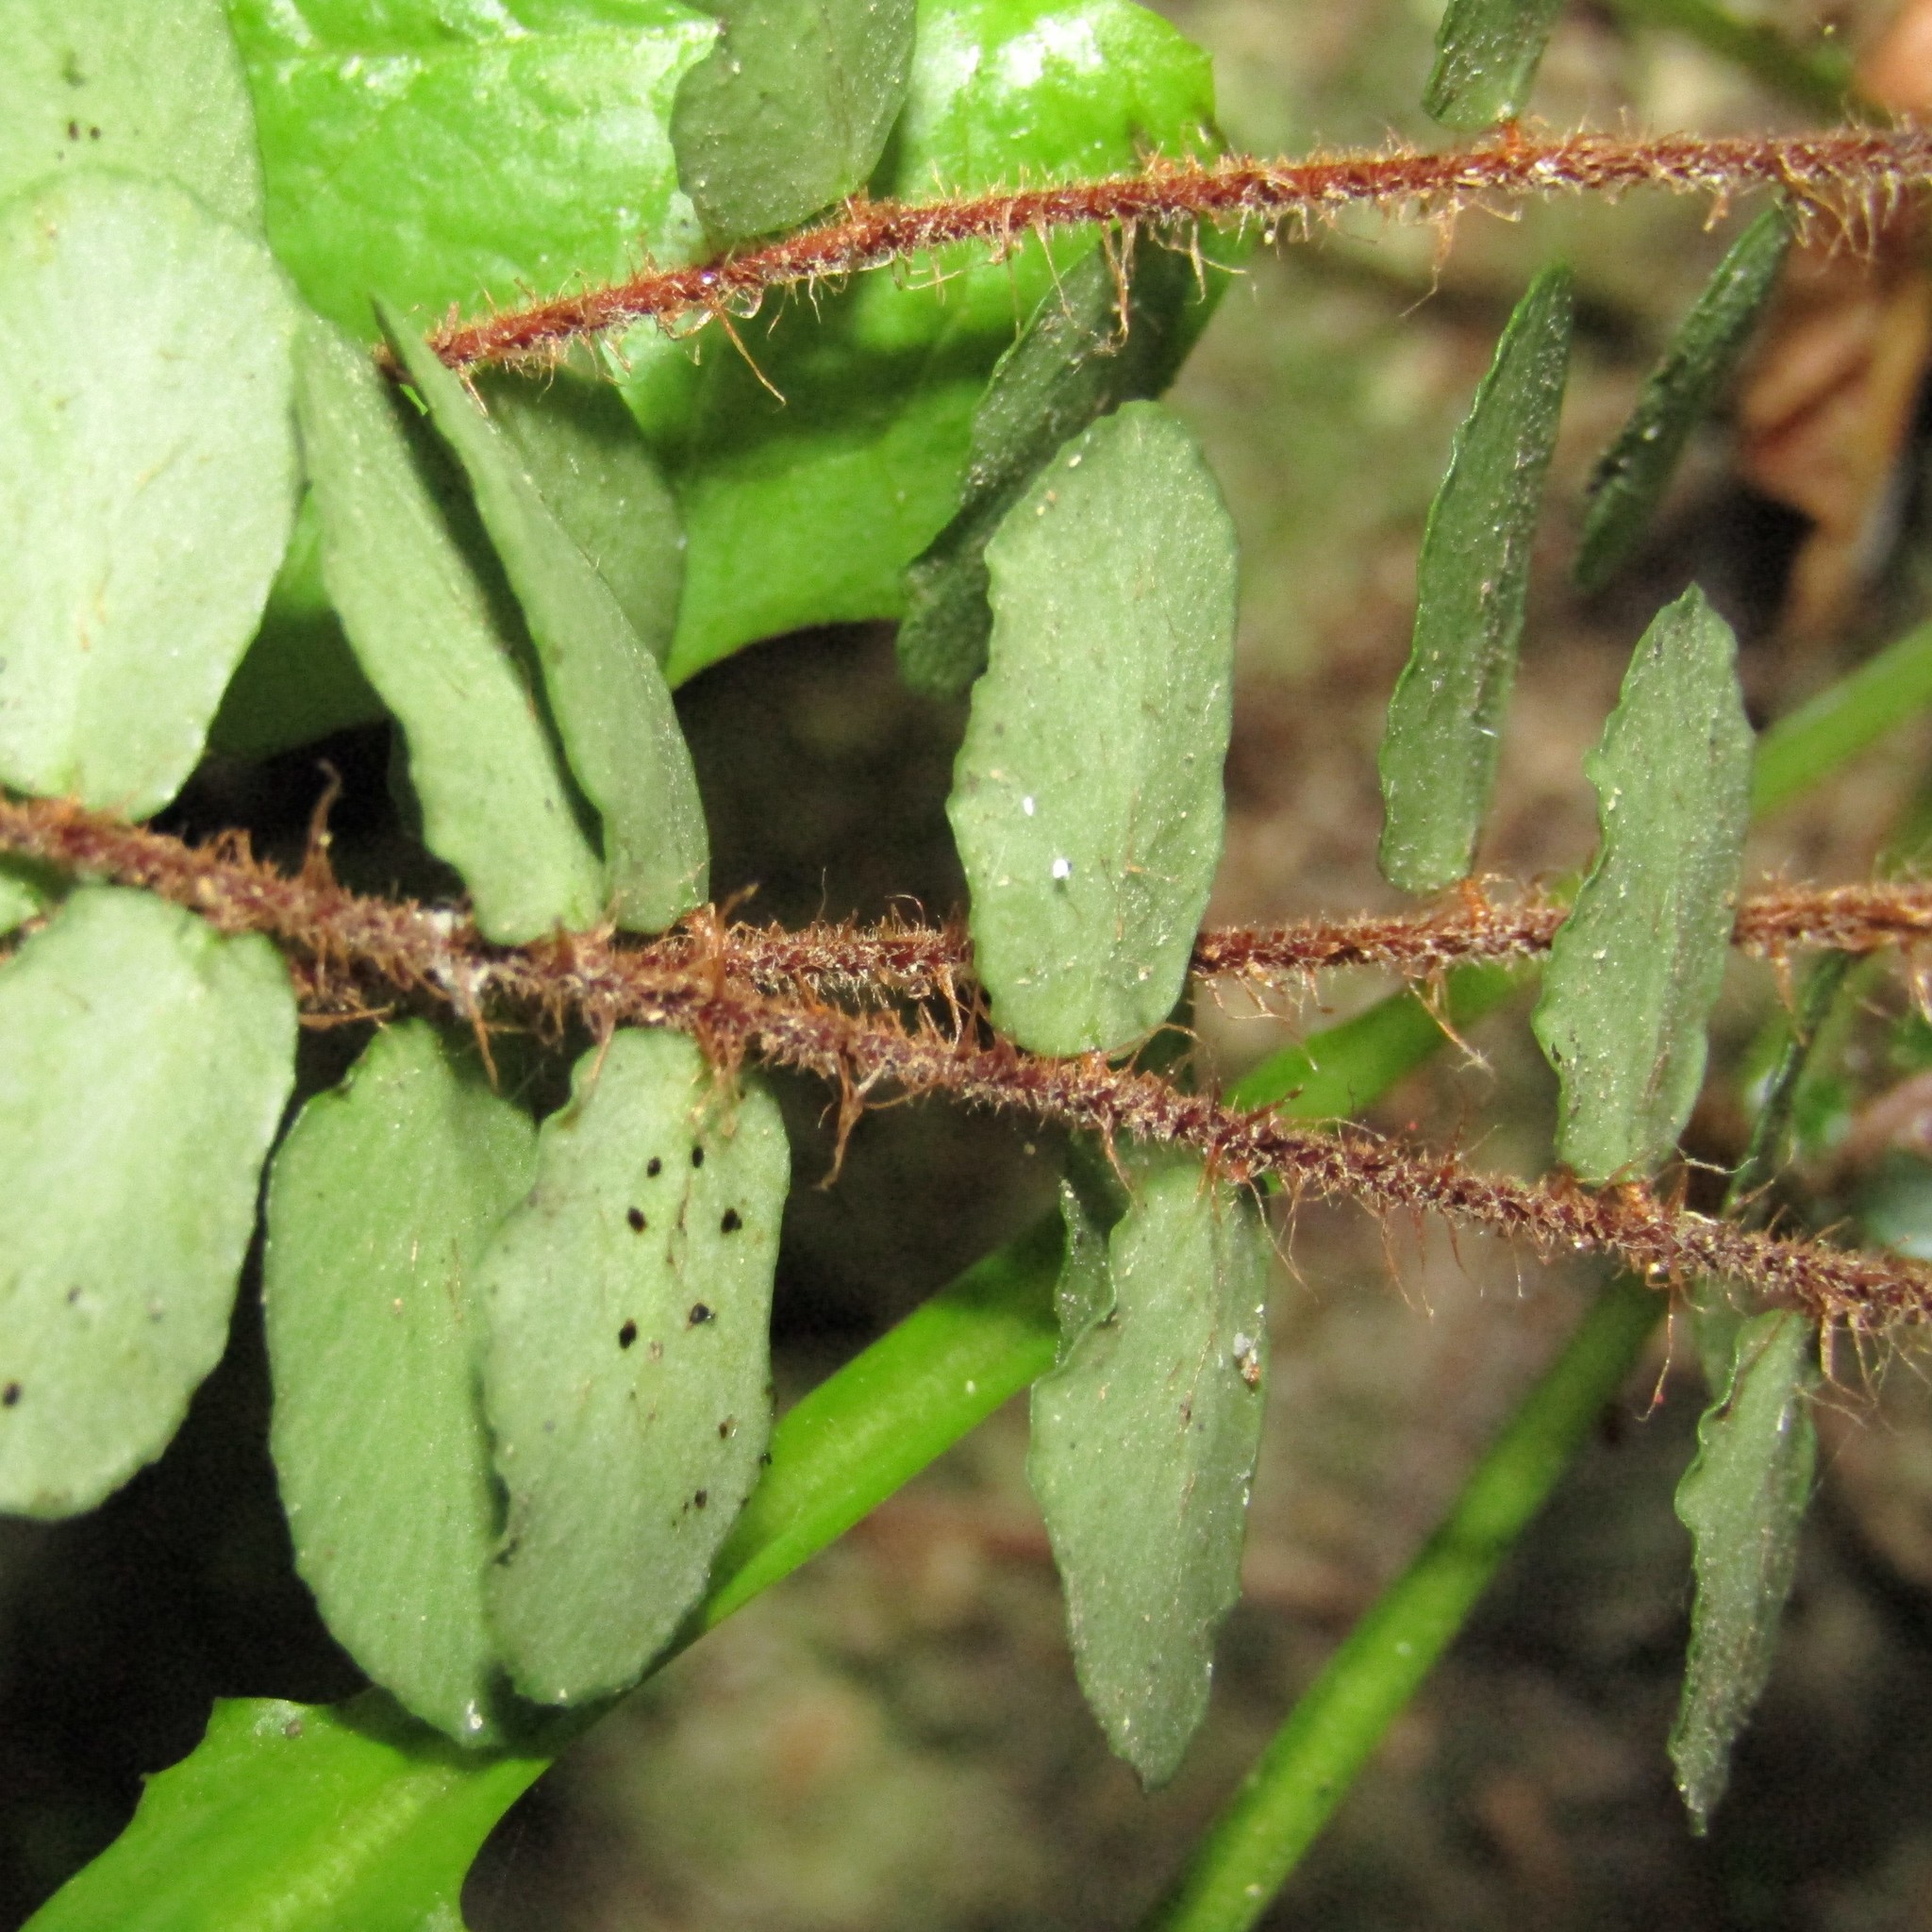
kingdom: Plantae
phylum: Tracheophyta
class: Polypodiopsida
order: Polypodiales
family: Pteridaceae
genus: Pellaea
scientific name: Pellaea rotundifolia
